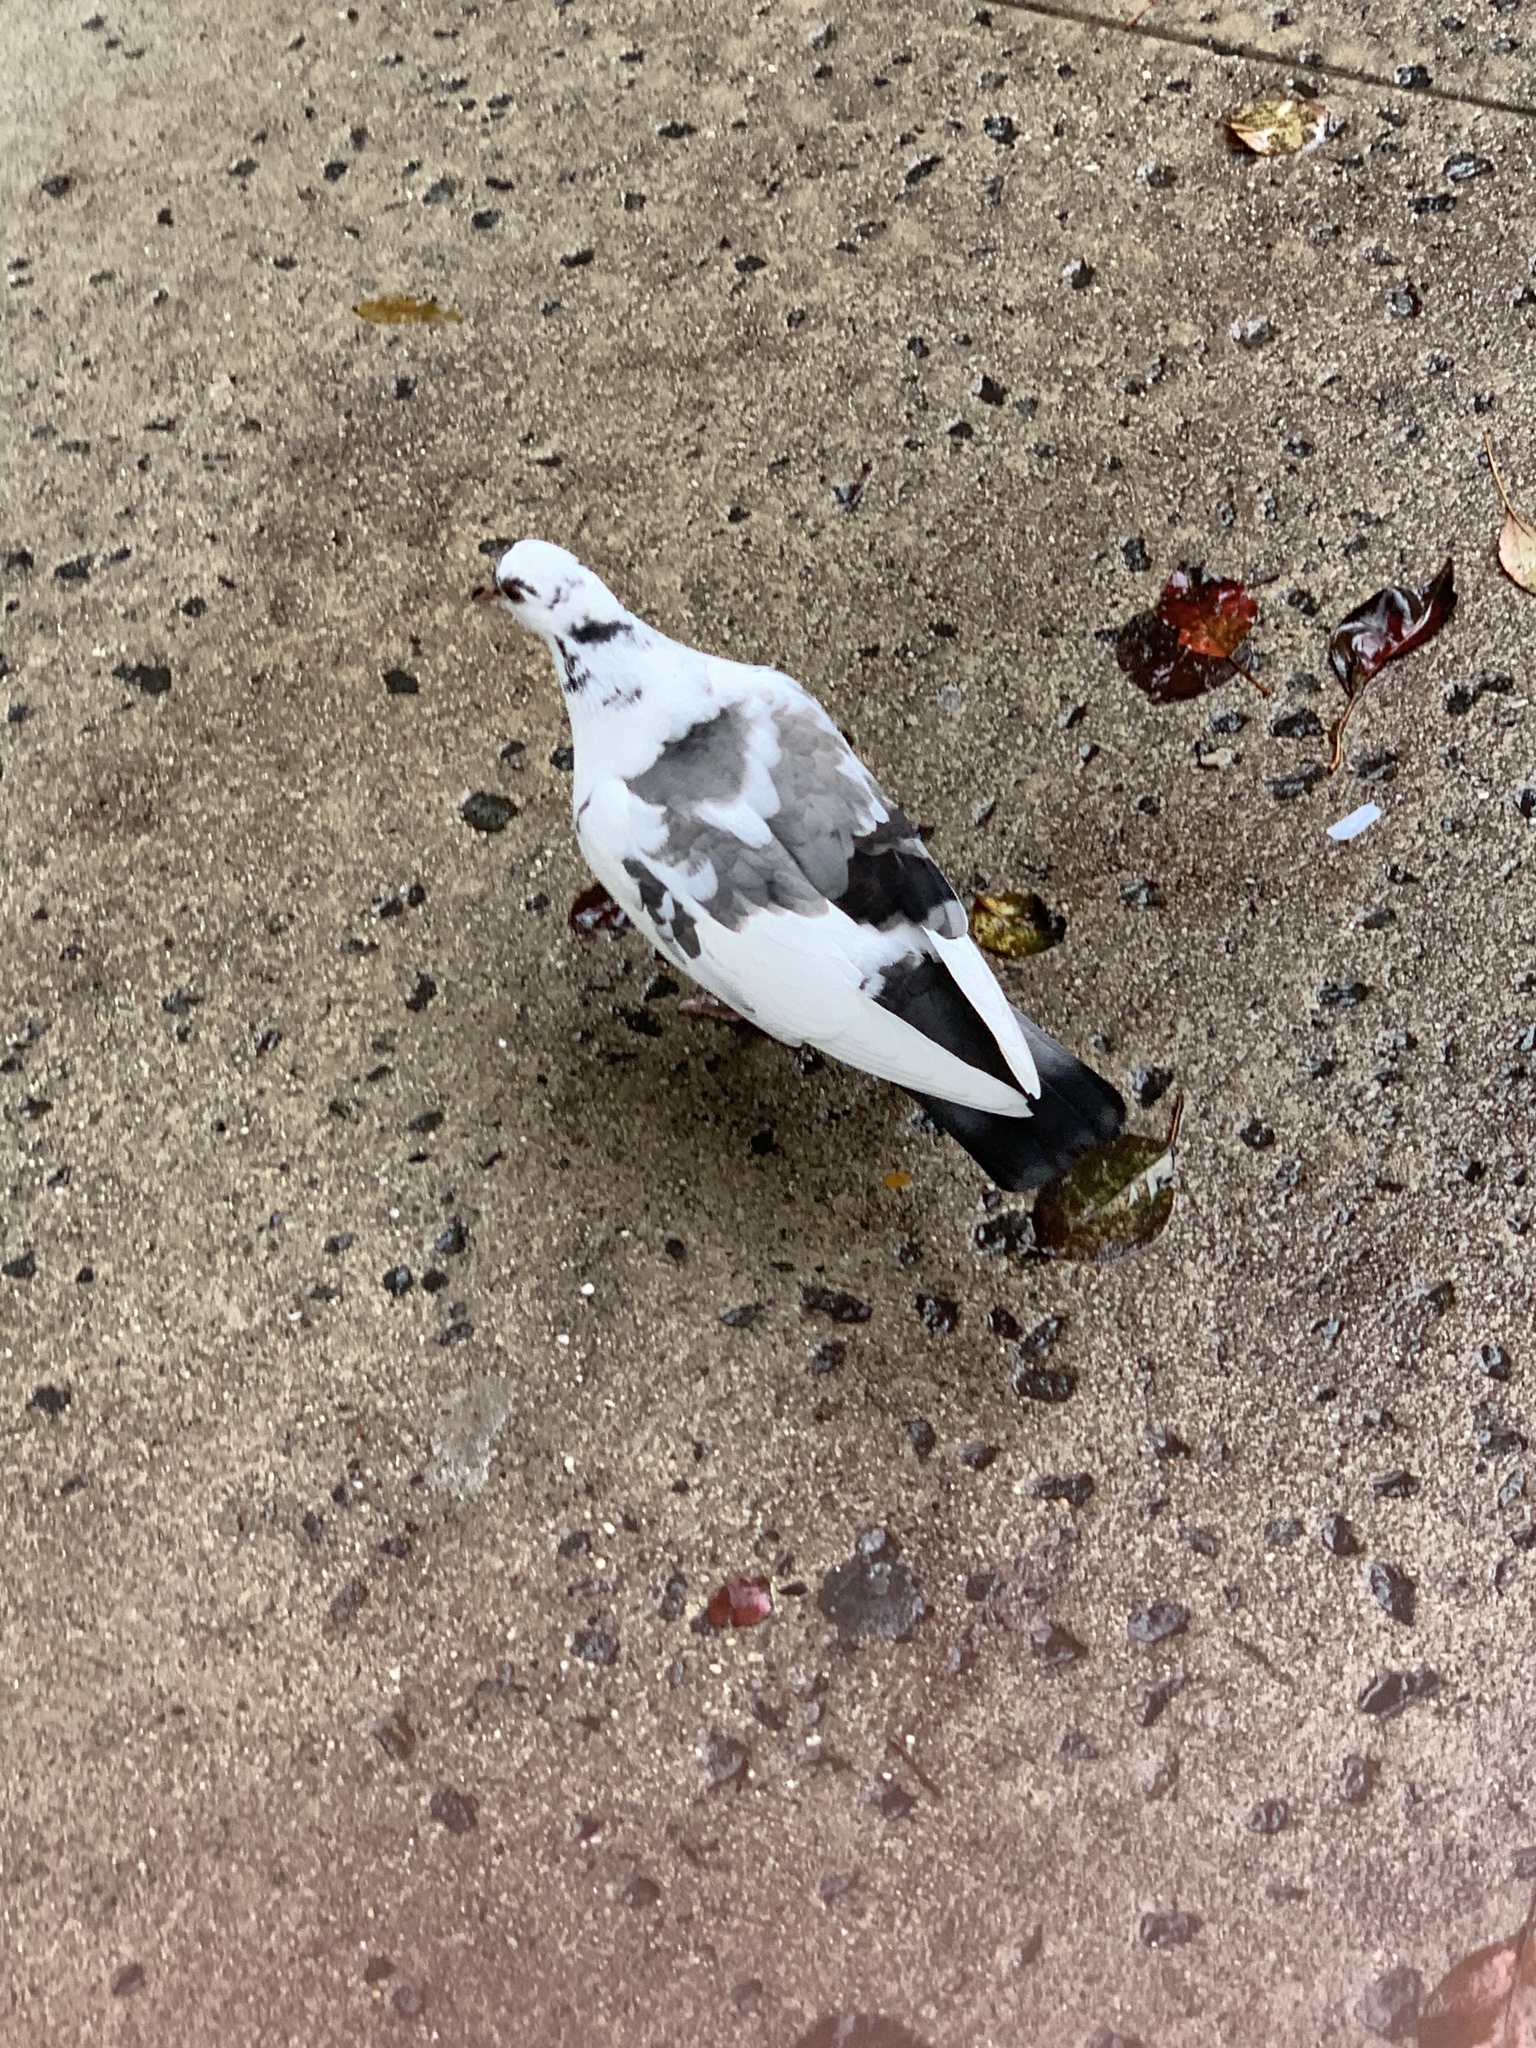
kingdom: Animalia
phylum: Chordata
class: Aves
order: Columbiformes
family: Columbidae
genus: Columba
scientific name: Columba livia
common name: Rock pigeon
